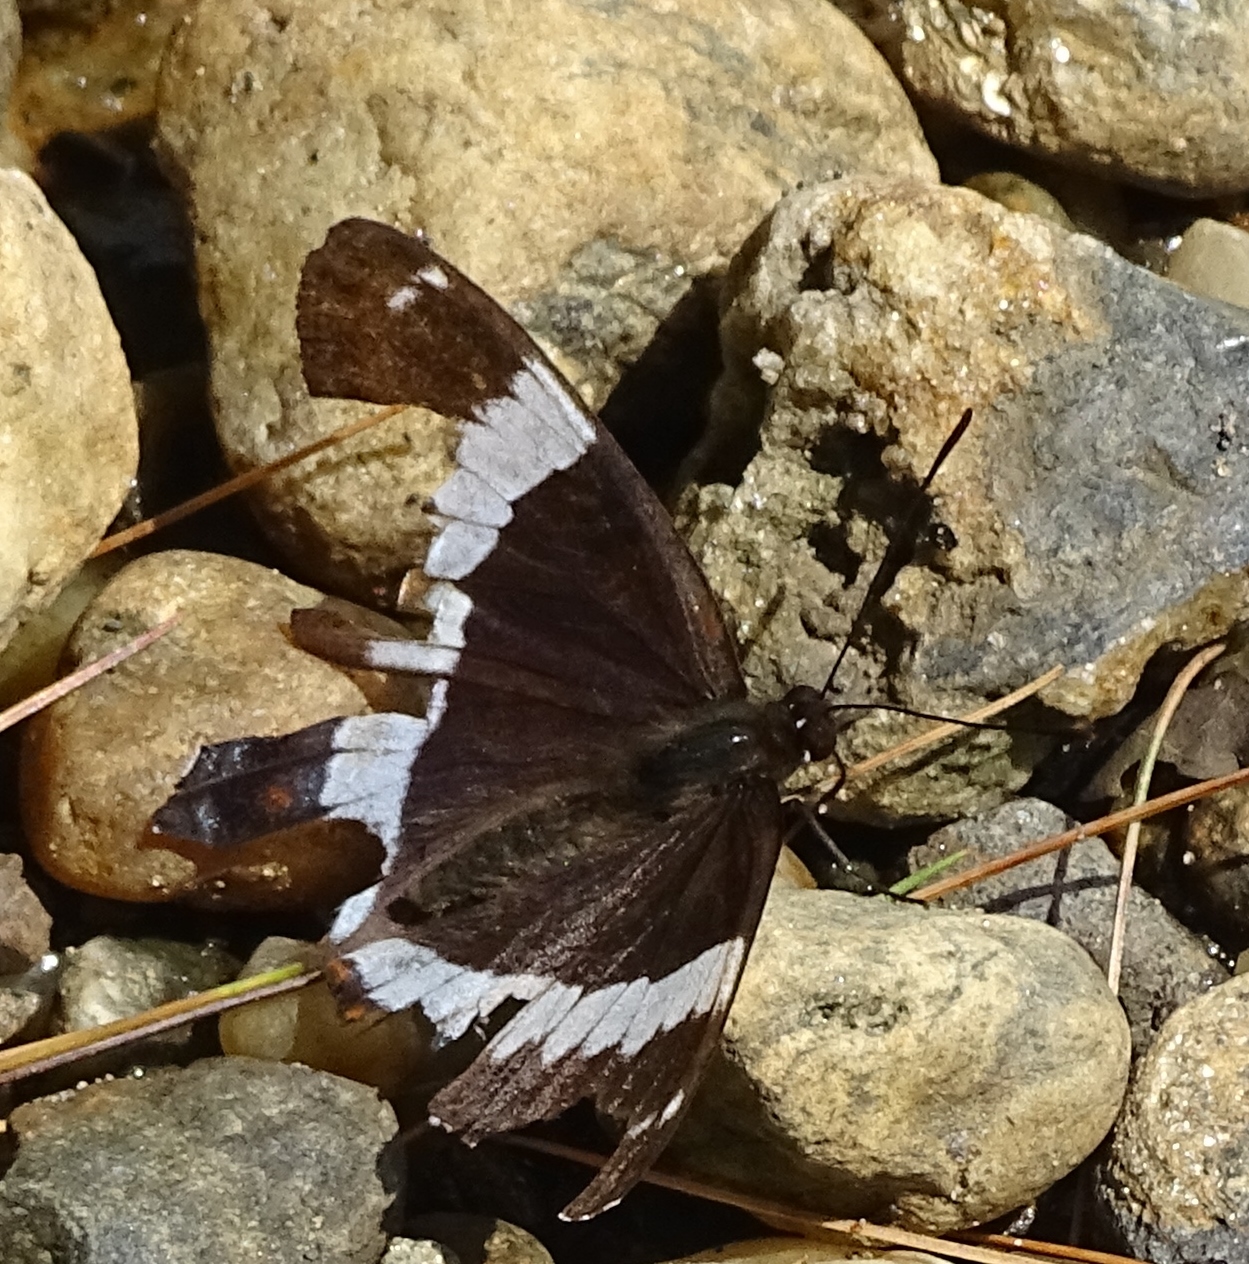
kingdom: Animalia
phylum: Arthropoda
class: Insecta
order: Lepidoptera
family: Nymphalidae
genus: Limenitis
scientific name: Limenitis arthemis
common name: Red-spotted admiral
